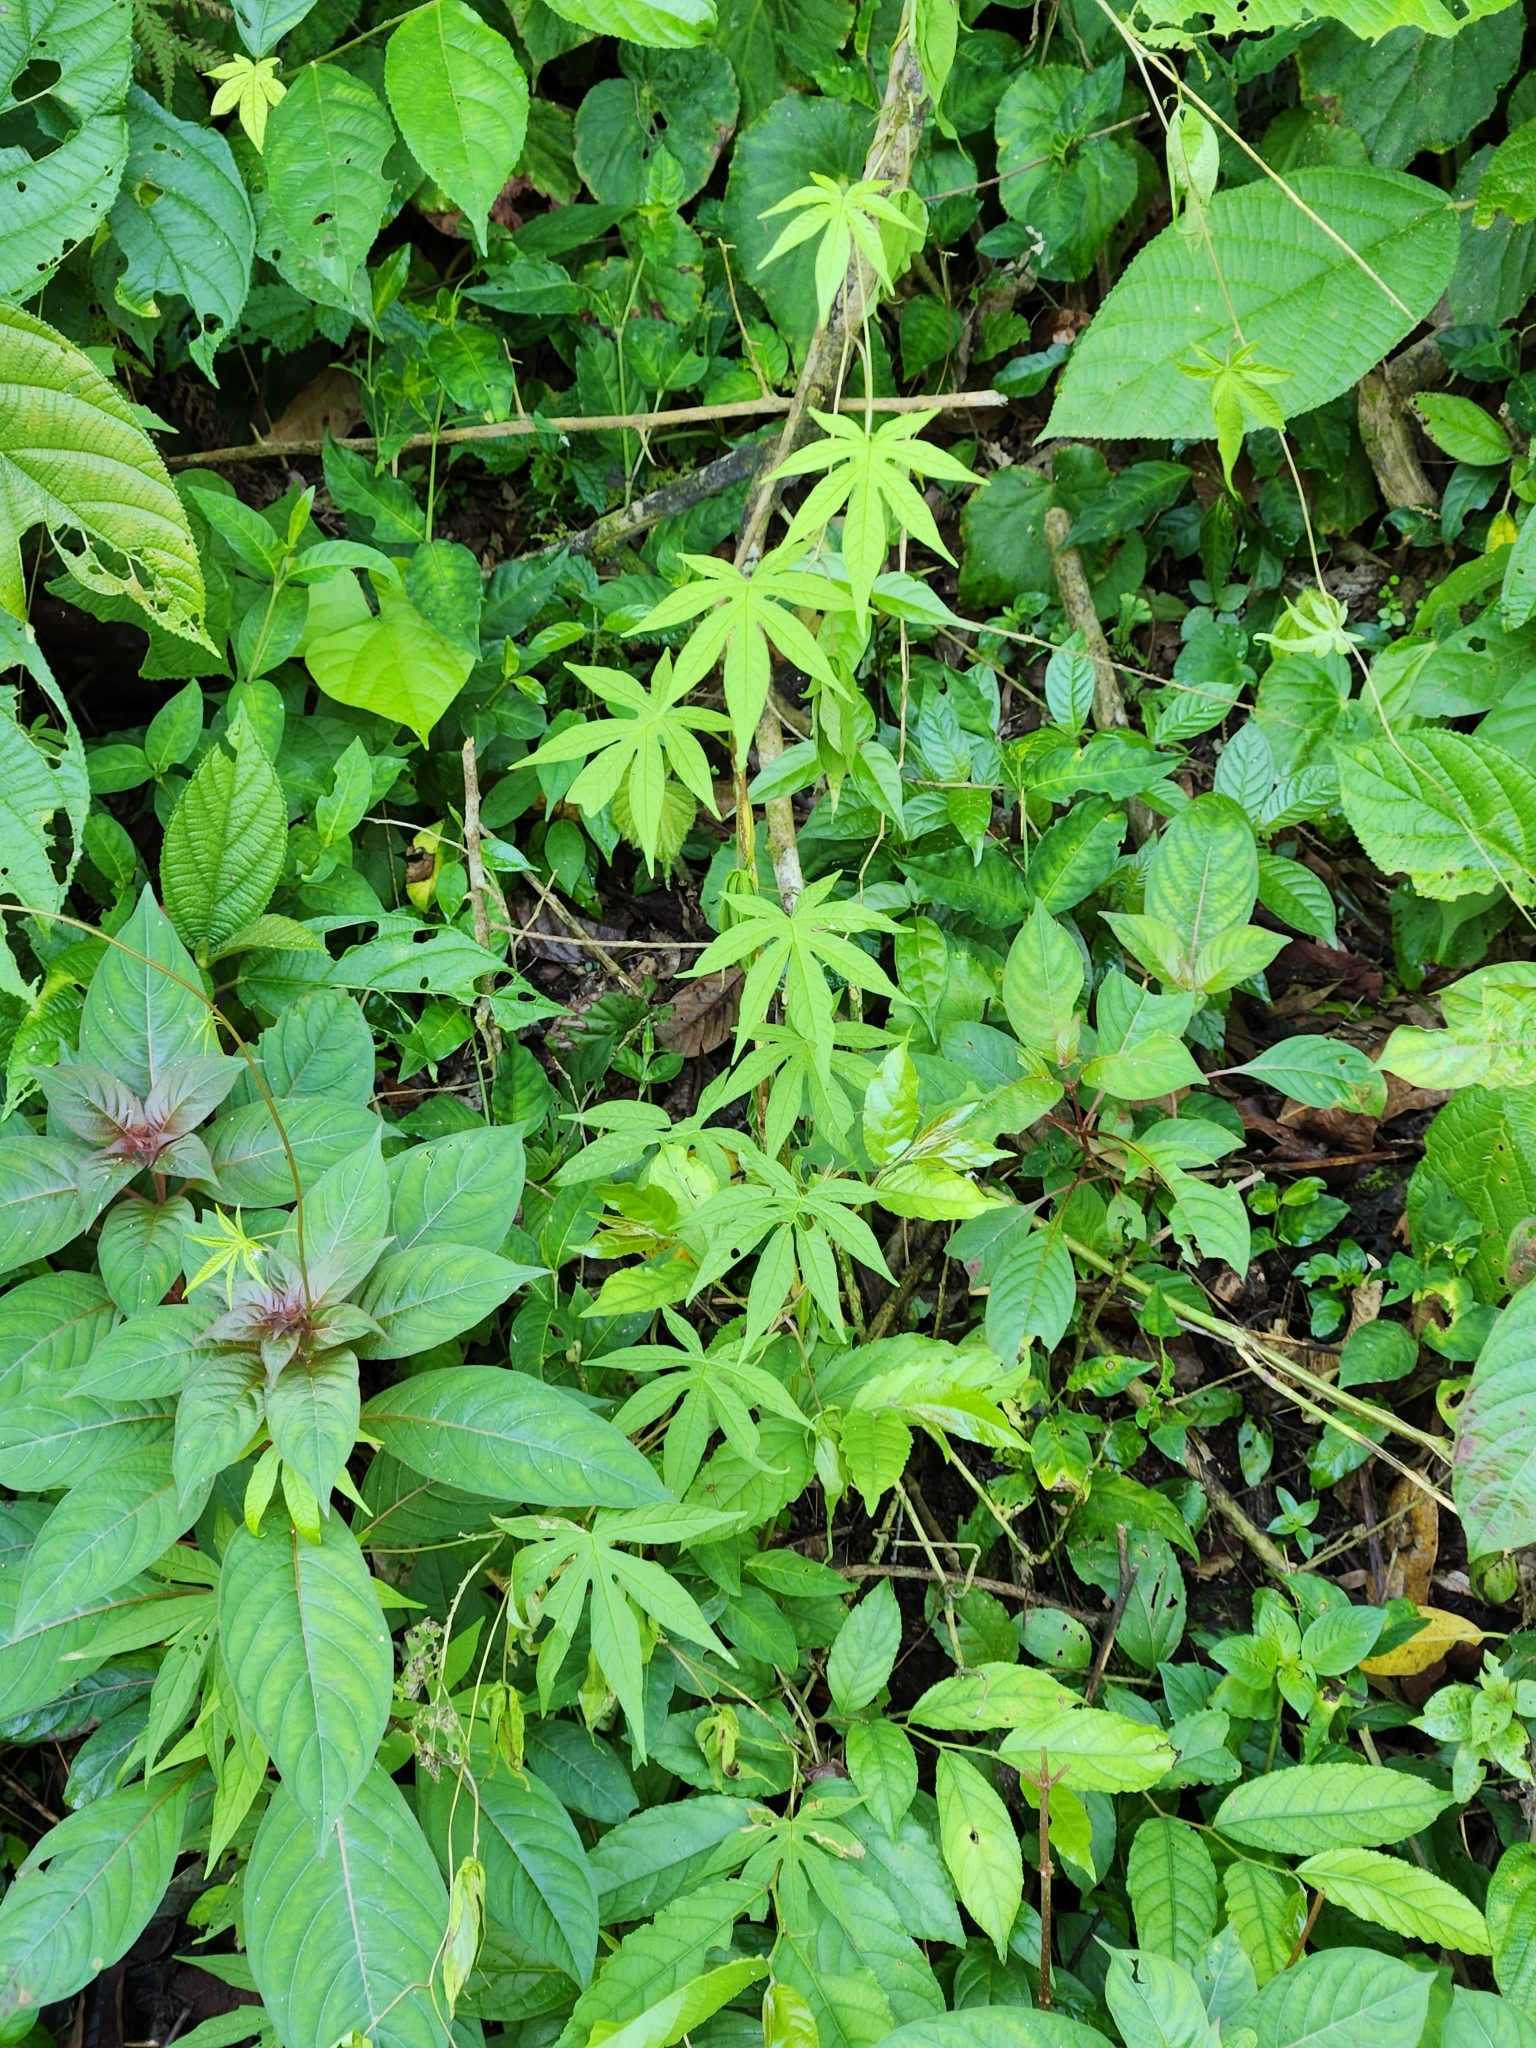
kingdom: Plantae
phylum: Tracheophyta
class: Magnoliopsida
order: Solanales
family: Convolvulaceae
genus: Distimake
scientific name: Distimake tuberosus
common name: Spanish arborvine
